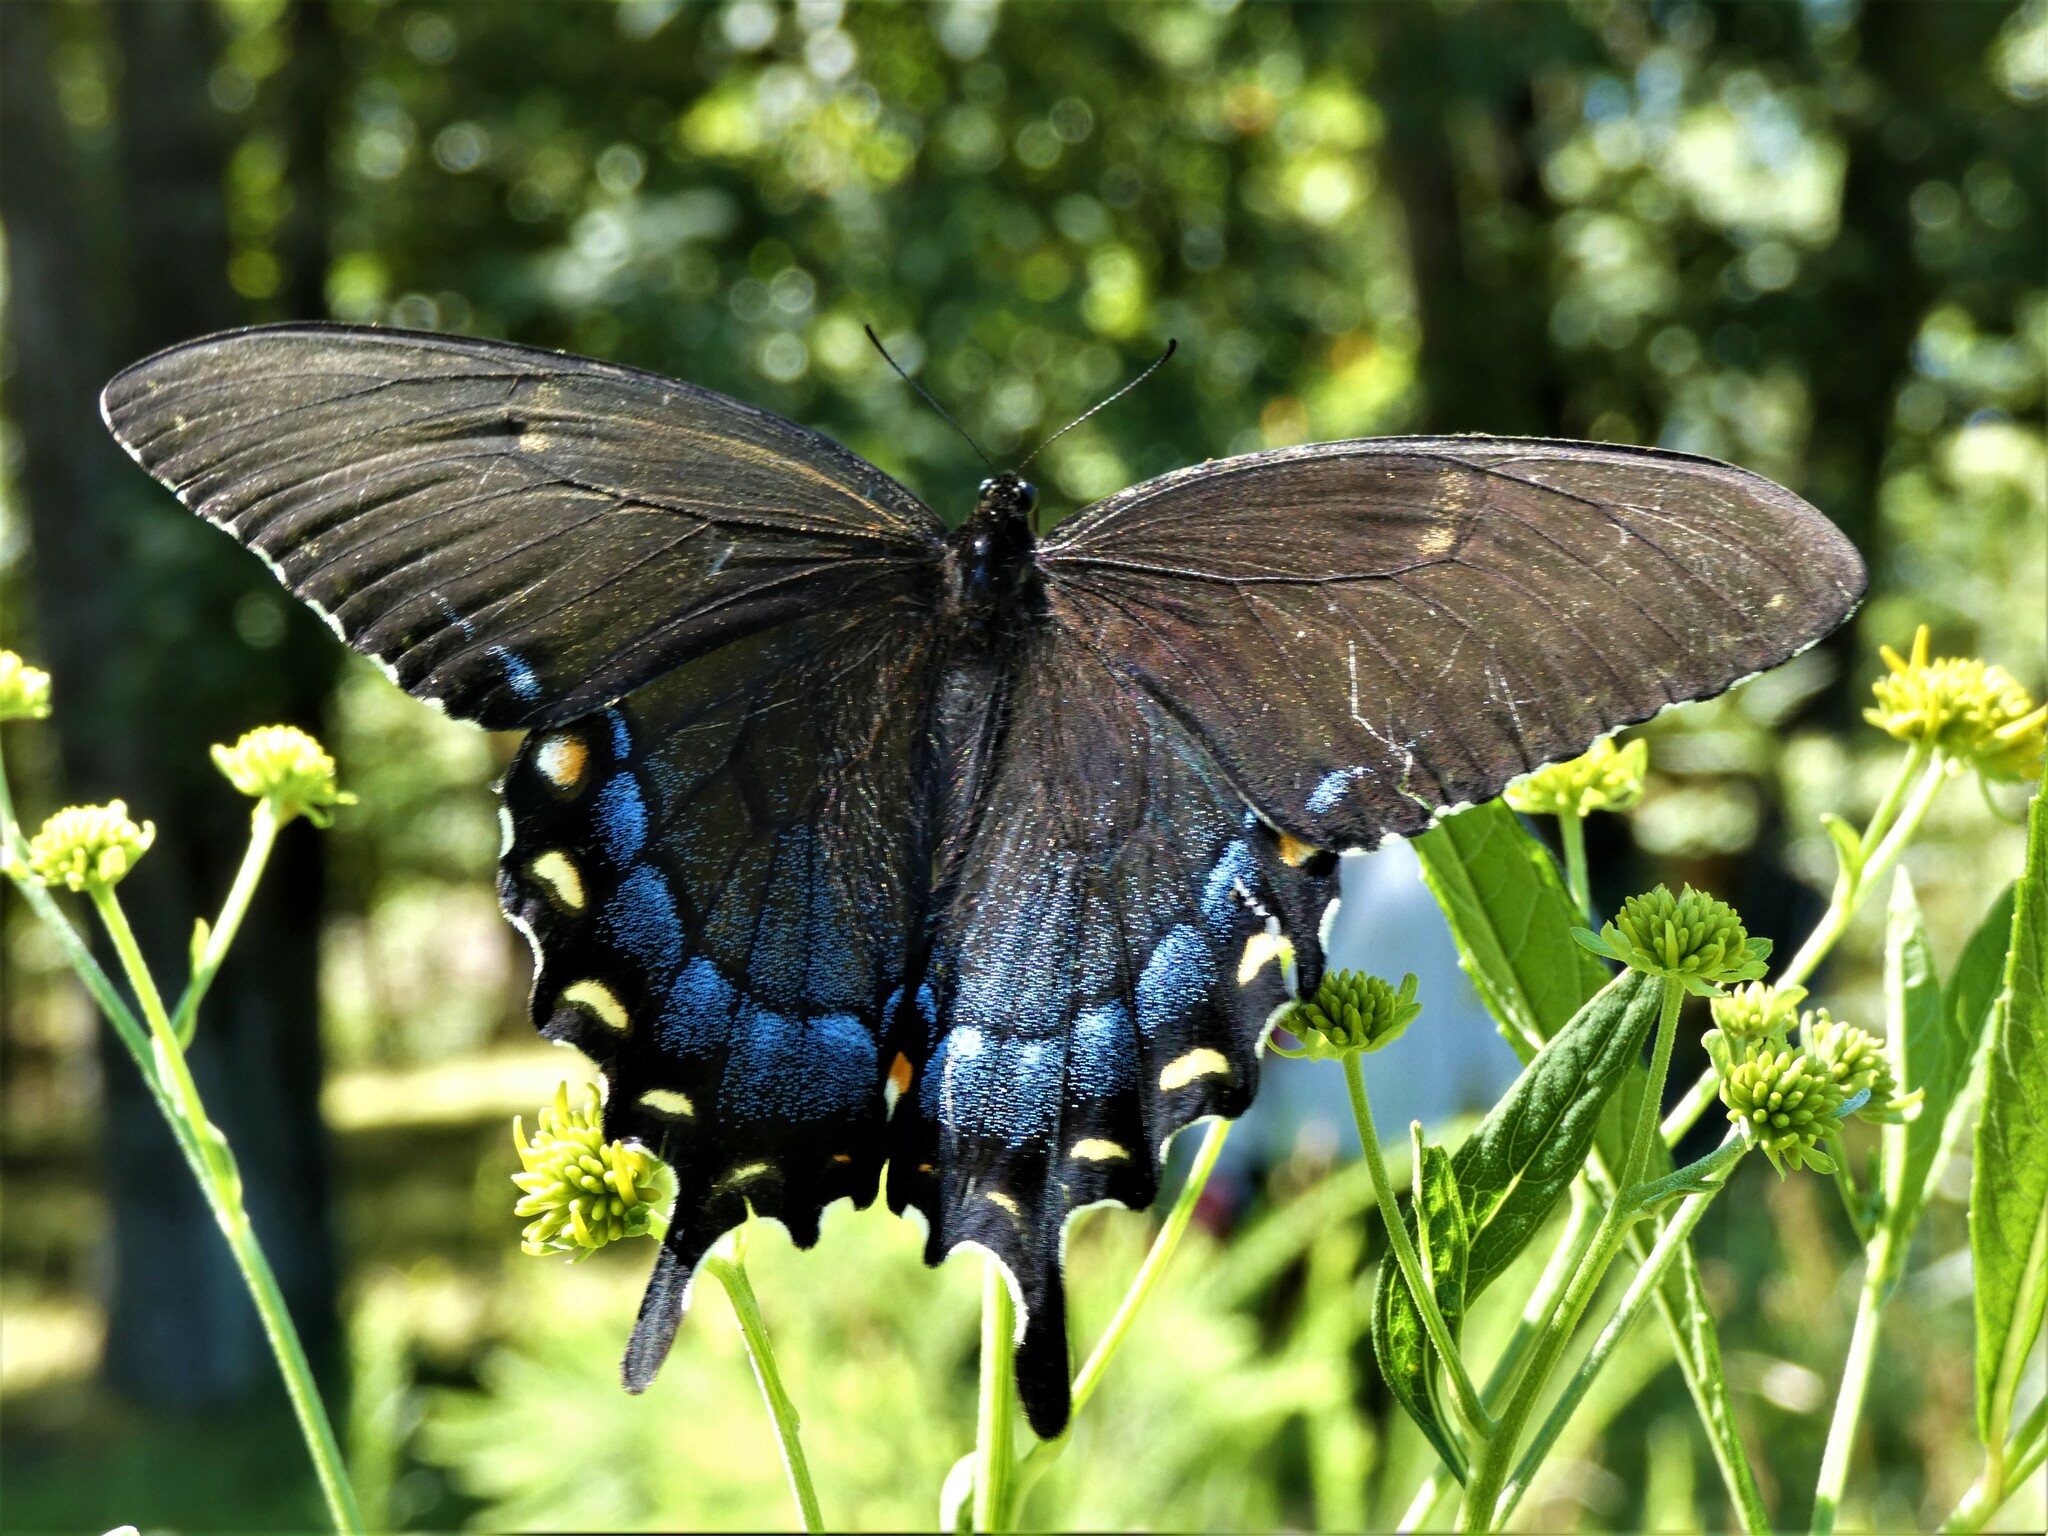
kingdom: Animalia
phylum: Arthropoda
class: Insecta
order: Lepidoptera
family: Papilionidae
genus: Papilio
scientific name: Papilio glaucus
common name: Tiger swallowtail
